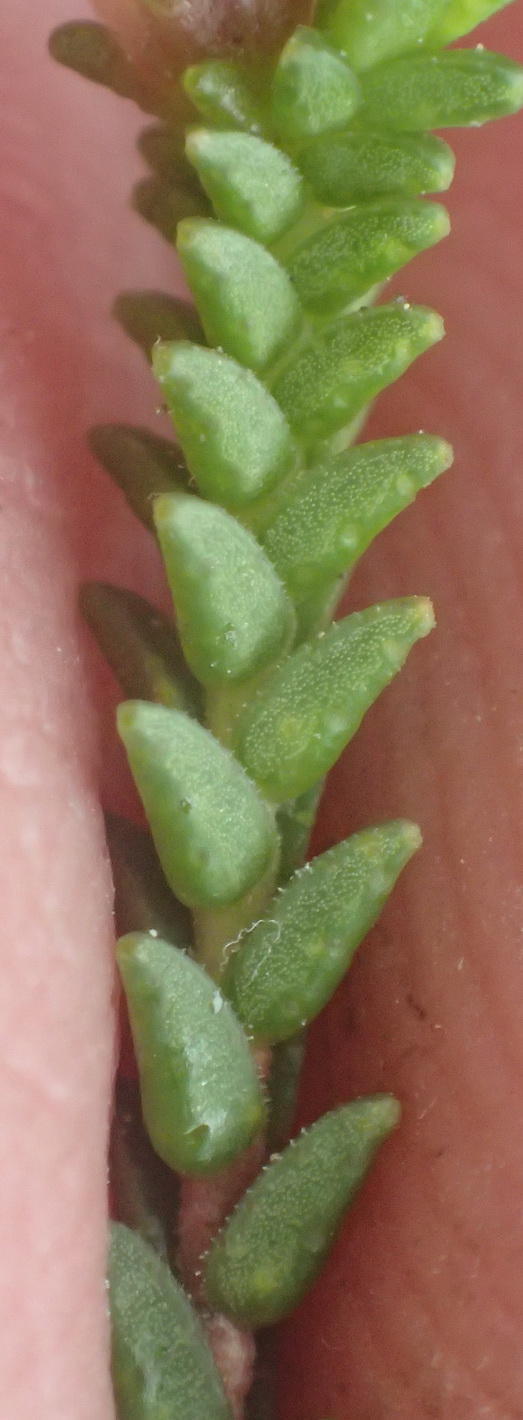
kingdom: Plantae
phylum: Tracheophyta
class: Magnoliopsida
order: Sapindales
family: Rutaceae
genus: Euchaetis
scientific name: Euchaetis albertiniana
